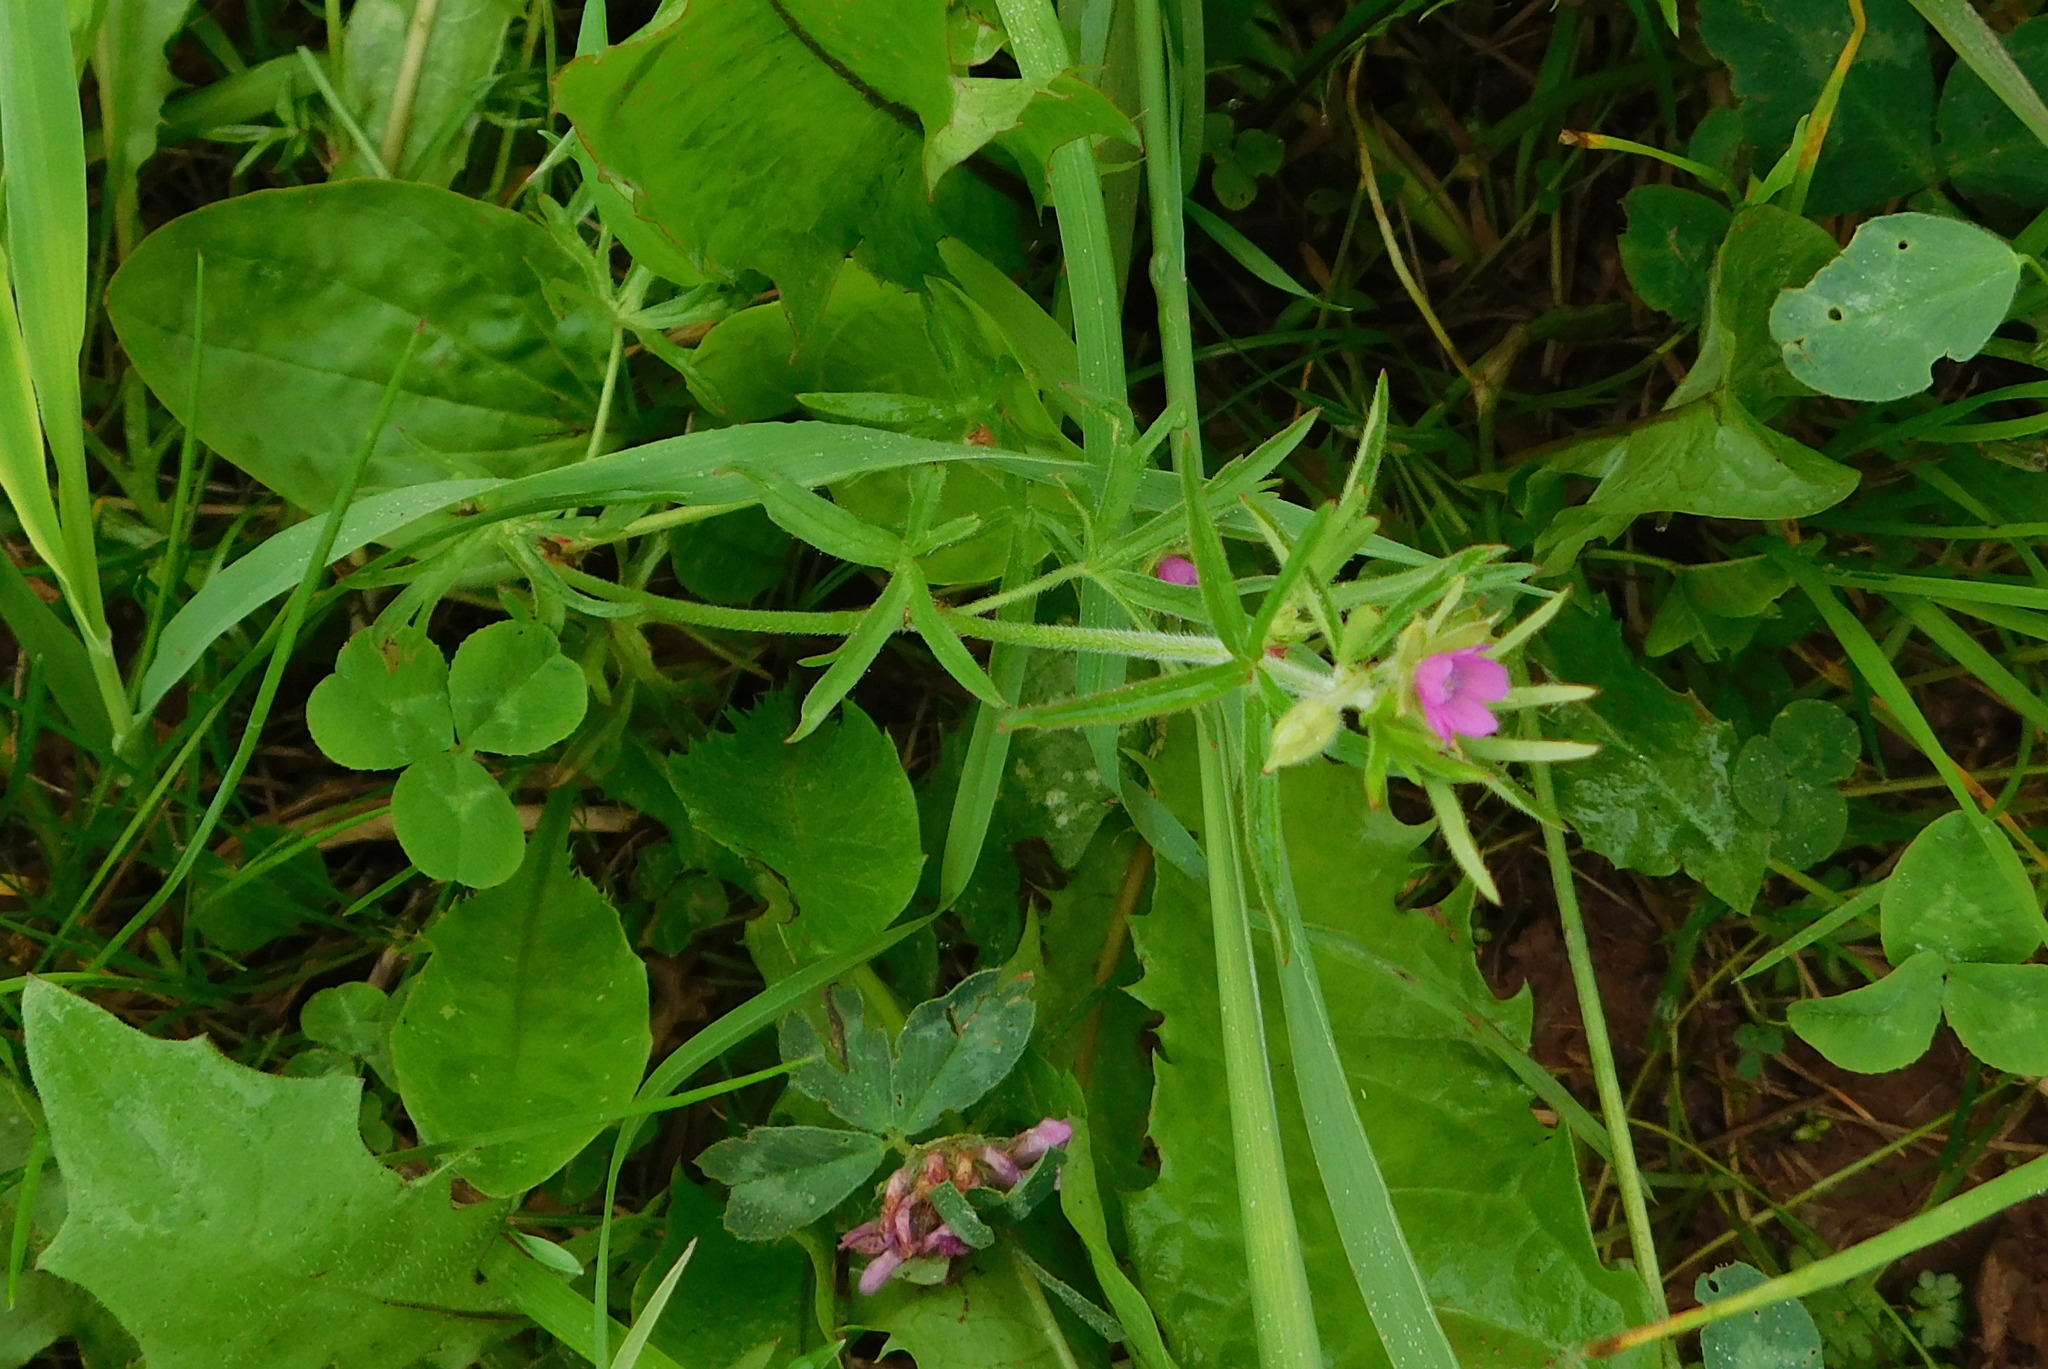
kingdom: Plantae
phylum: Tracheophyta
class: Magnoliopsida
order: Geraniales
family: Geraniaceae
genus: Geranium
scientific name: Geranium dissectum
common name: Cut-leaved crane's-bill
